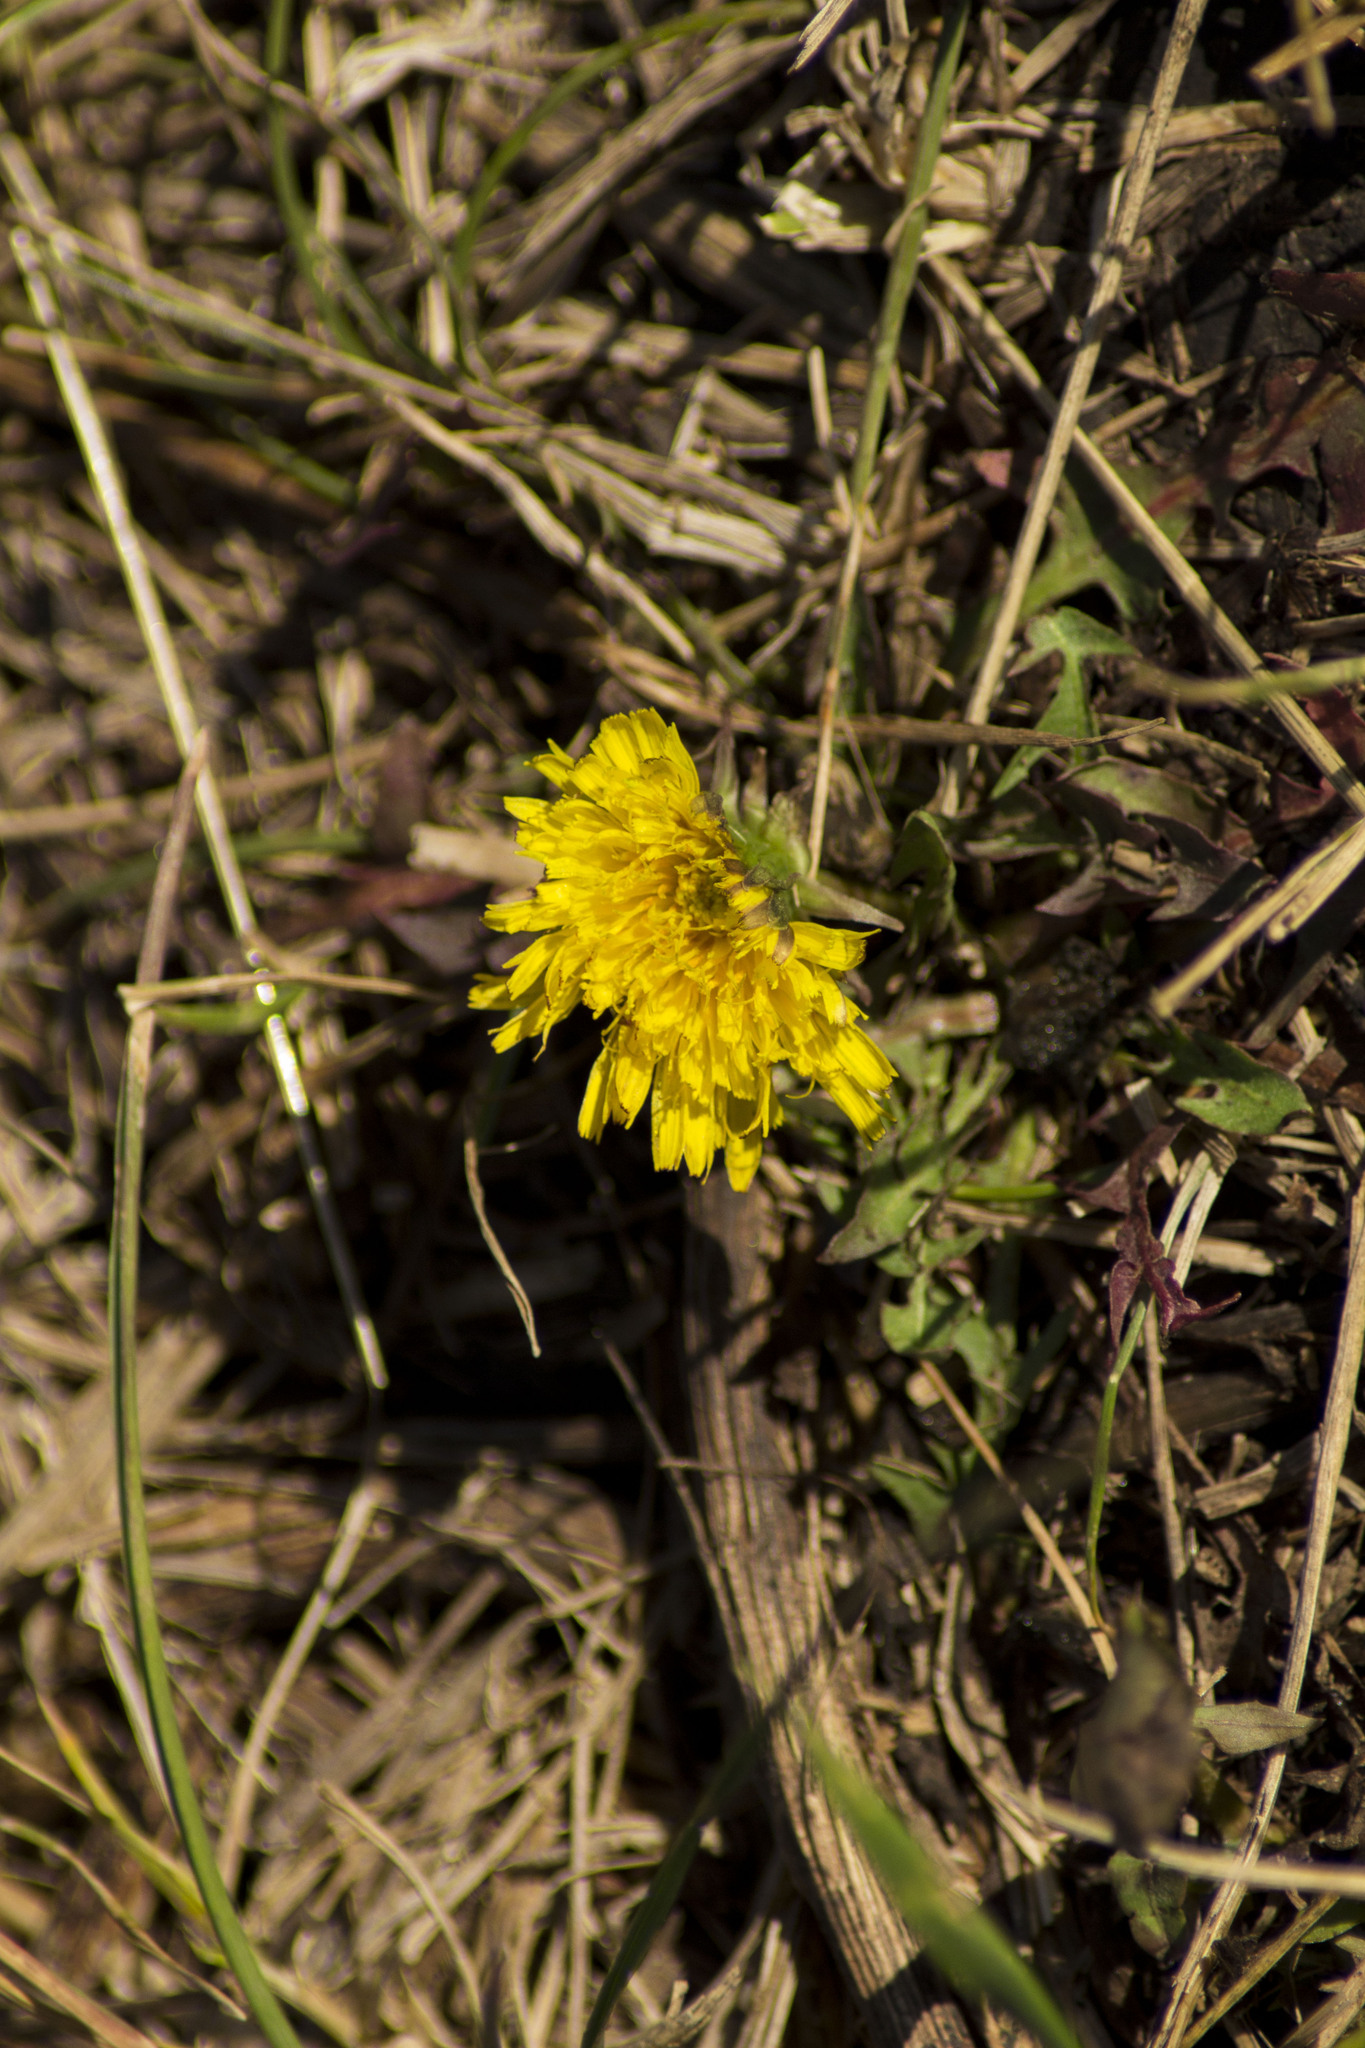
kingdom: Plantae
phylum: Tracheophyta
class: Magnoliopsida
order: Asterales
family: Asteraceae
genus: Taraxacum
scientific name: Taraxacum officinale
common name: Common dandelion
